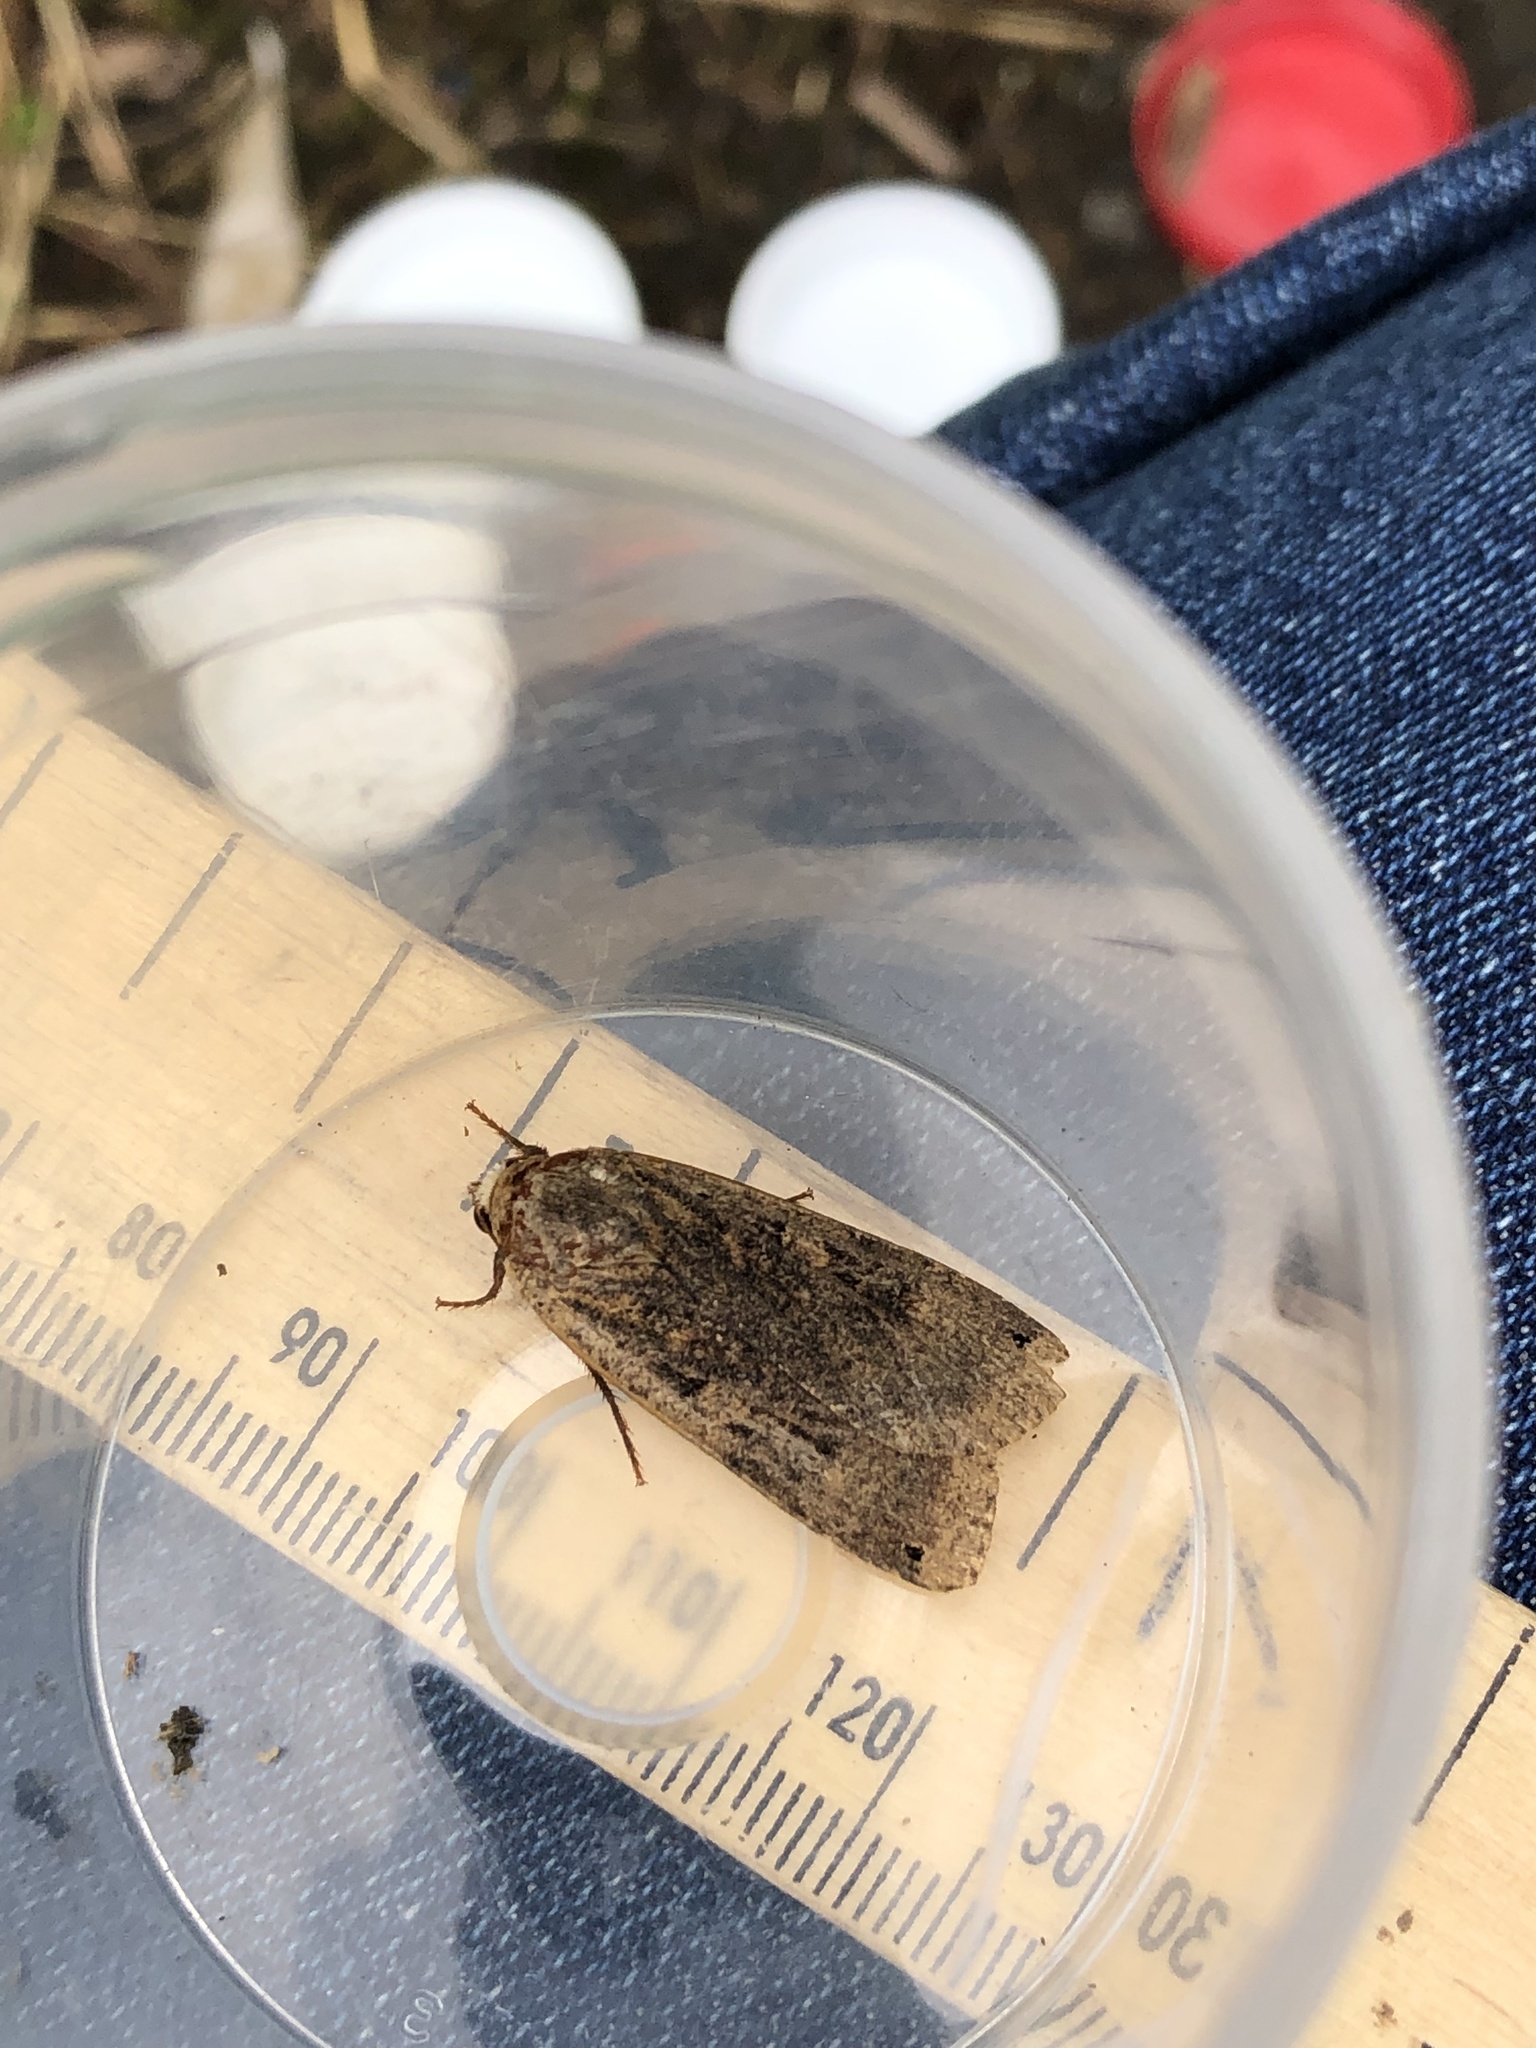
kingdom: Animalia
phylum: Arthropoda
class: Insecta
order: Lepidoptera
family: Noctuidae
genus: Noctua
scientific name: Noctua pronuba
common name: Large yellow underwing
